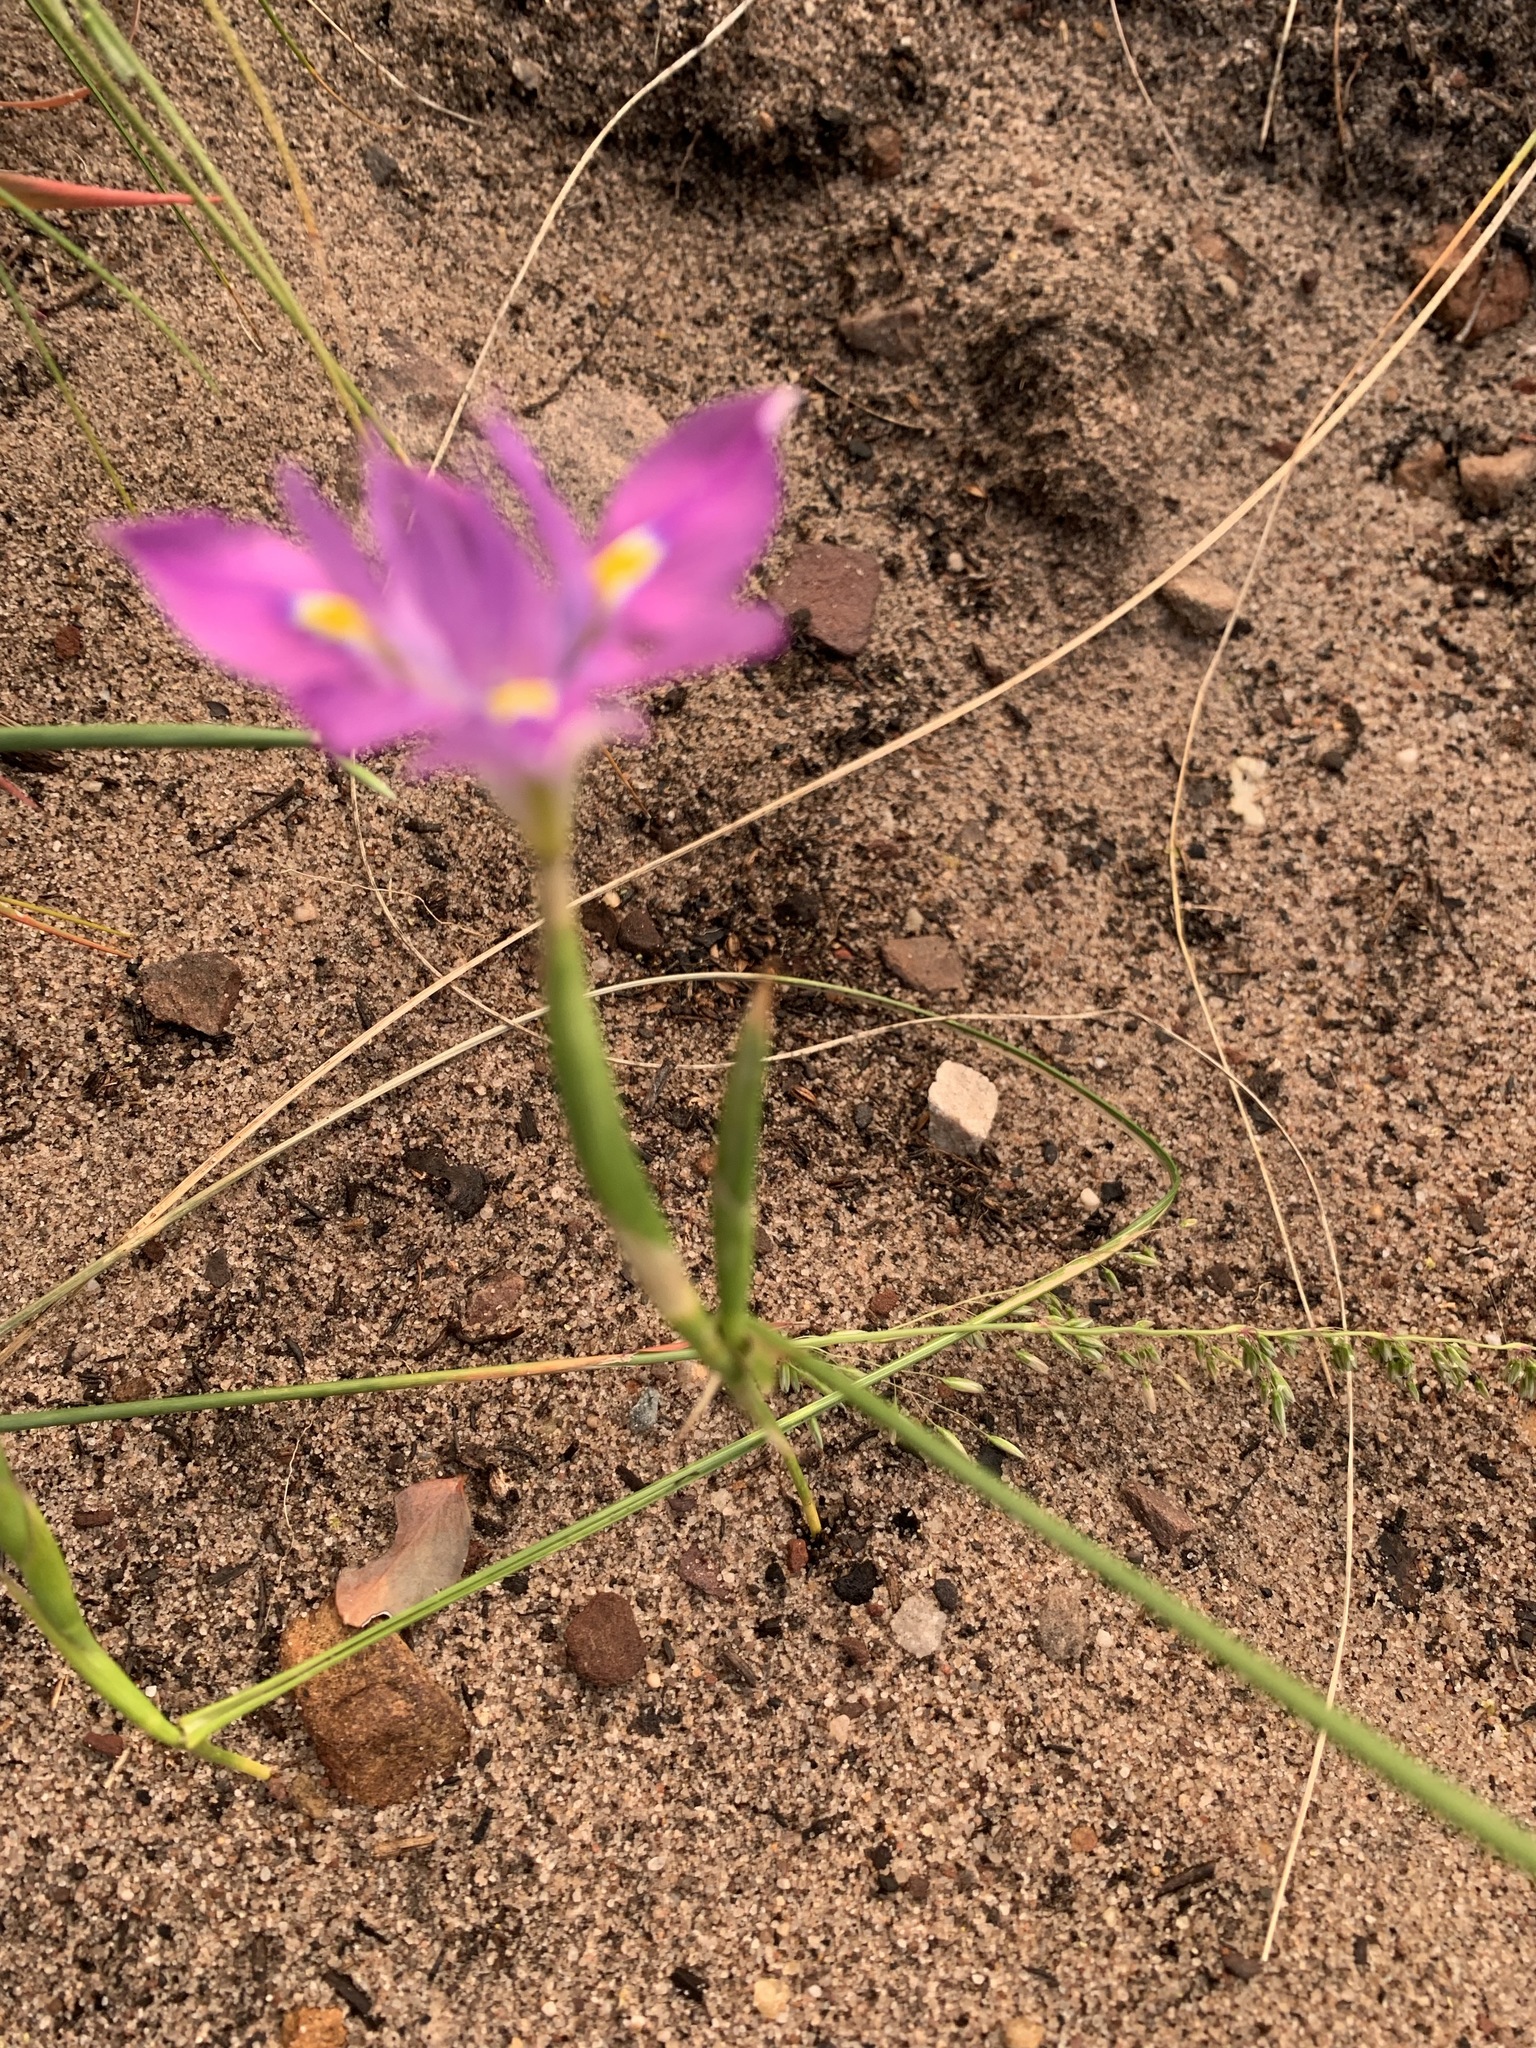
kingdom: Plantae
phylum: Tracheophyta
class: Liliopsida
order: Asparagales
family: Iridaceae
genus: Moraea
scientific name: Moraea fugax
